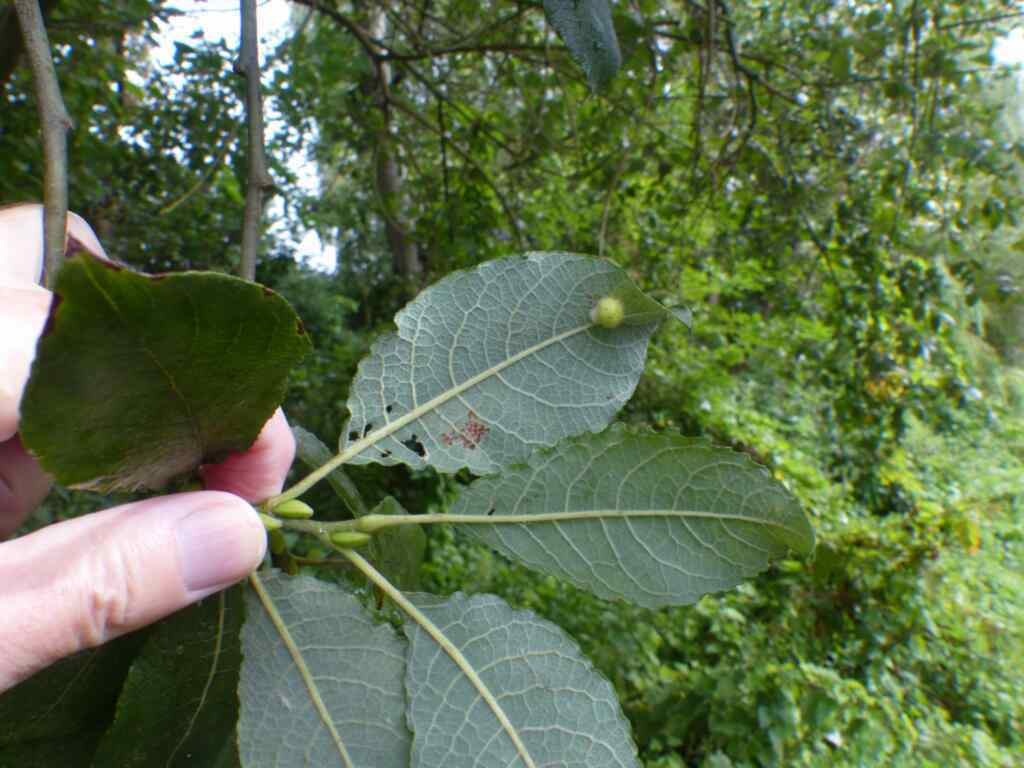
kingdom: Animalia
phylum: Arthropoda
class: Insecta
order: Hymenoptera
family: Tenthredinidae
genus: Pontania
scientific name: Pontania pedunculi
